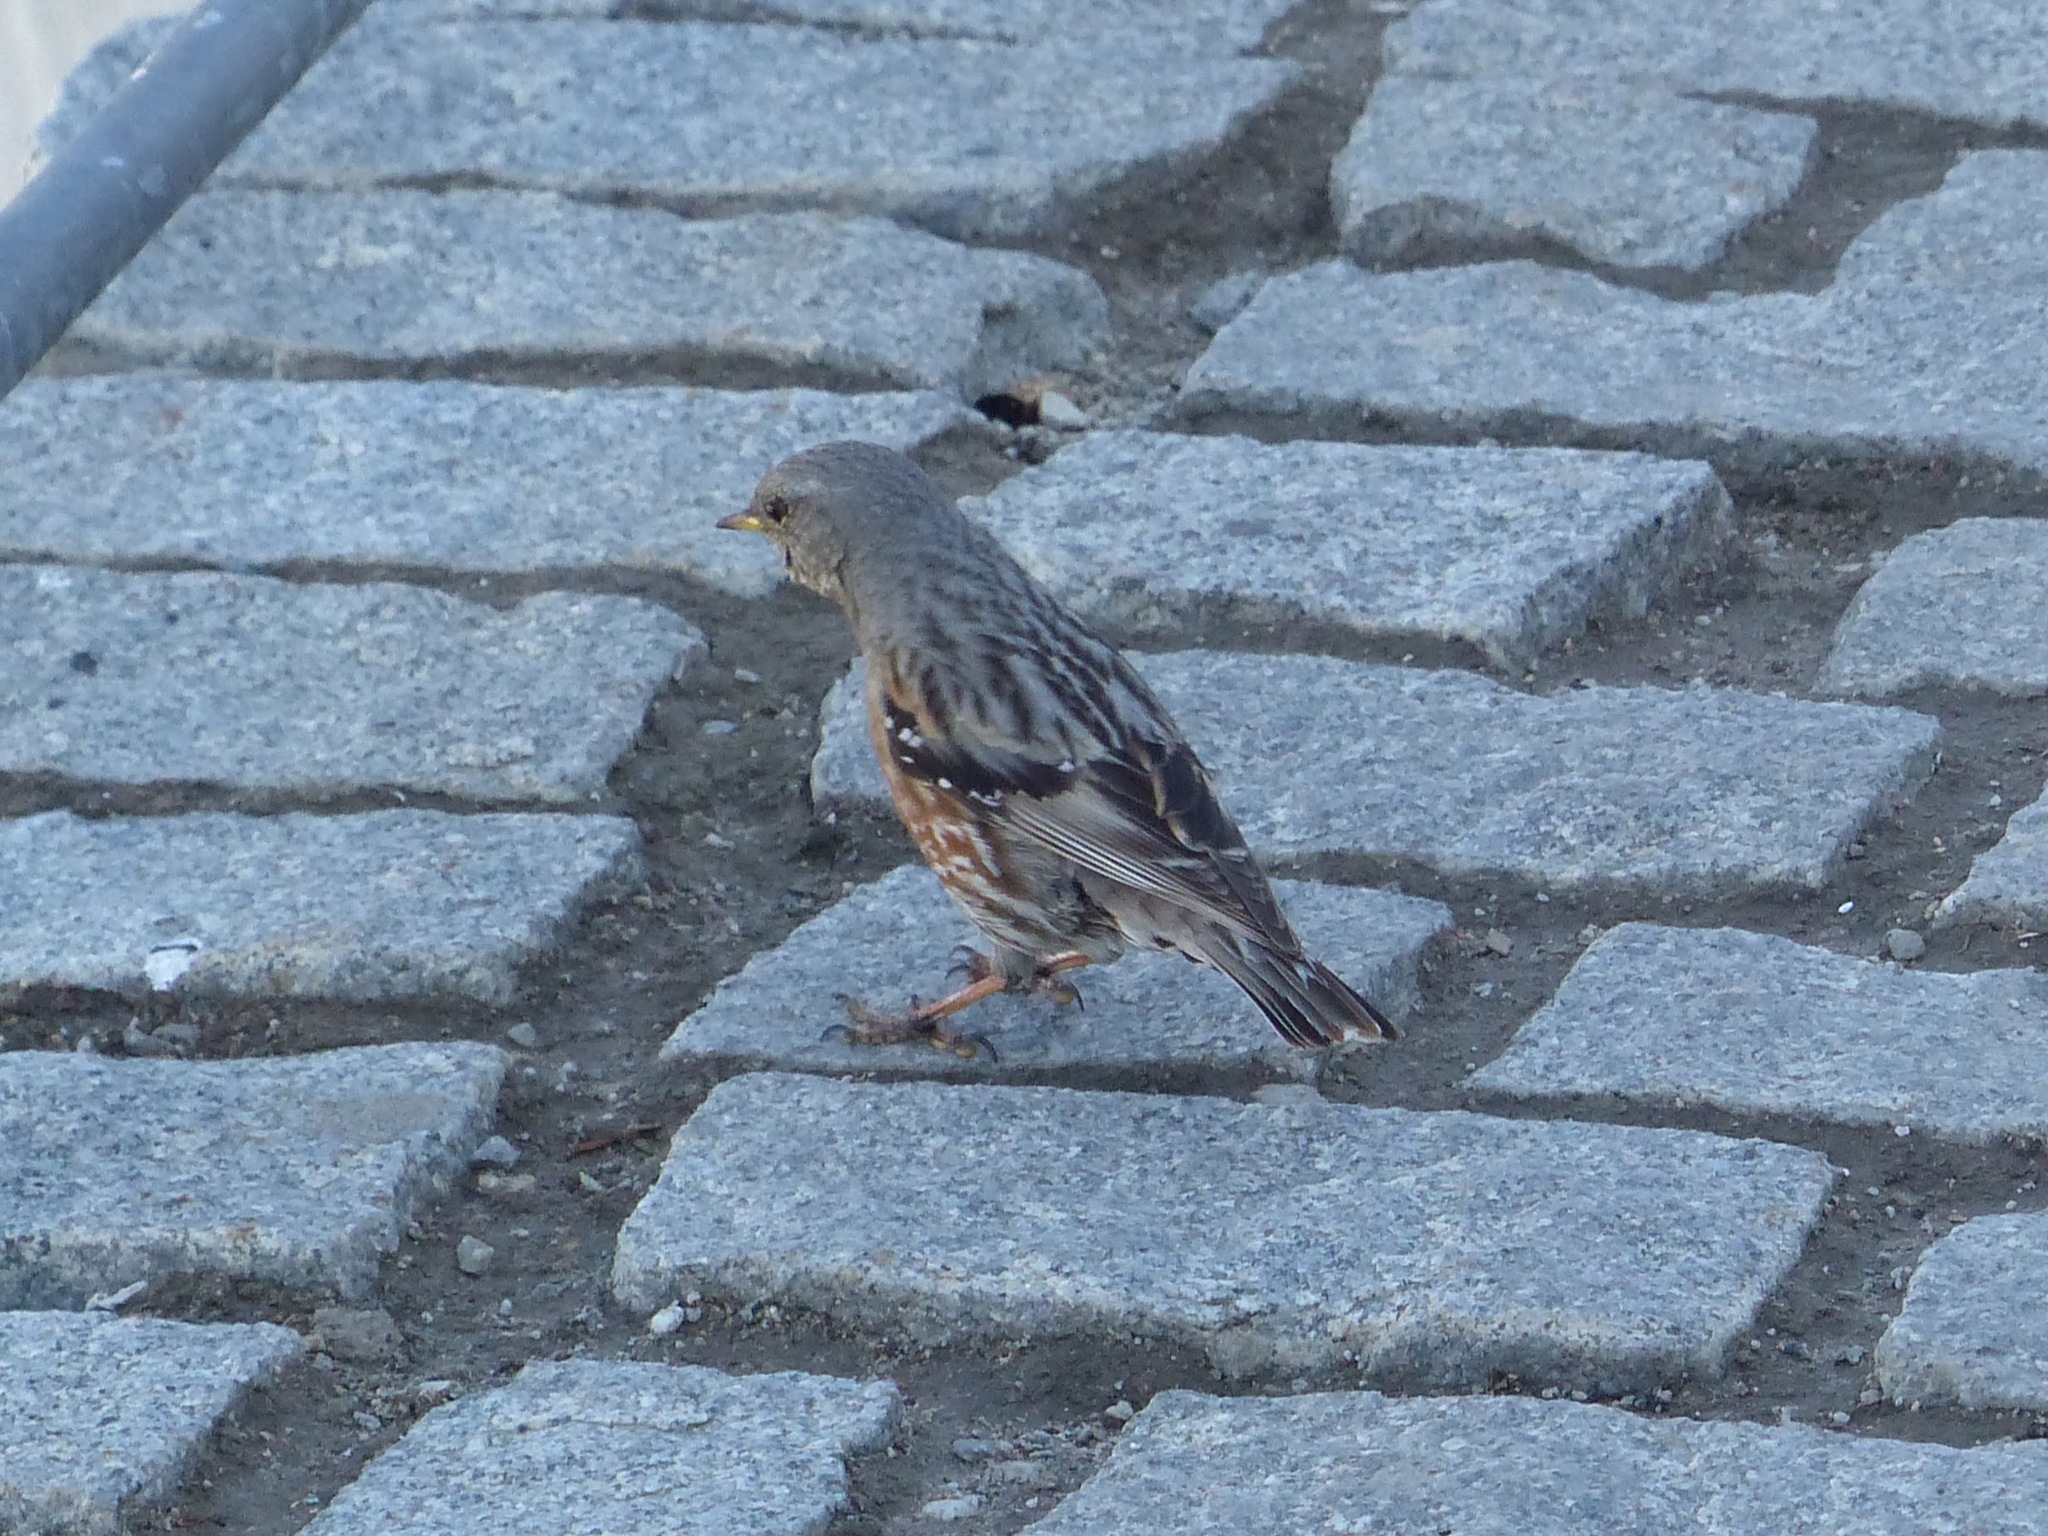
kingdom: Animalia
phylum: Chordata
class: Aves
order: Passeriformes
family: Prunellidae
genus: Prunella
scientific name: Prunella collaris
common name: Alpine accentor
